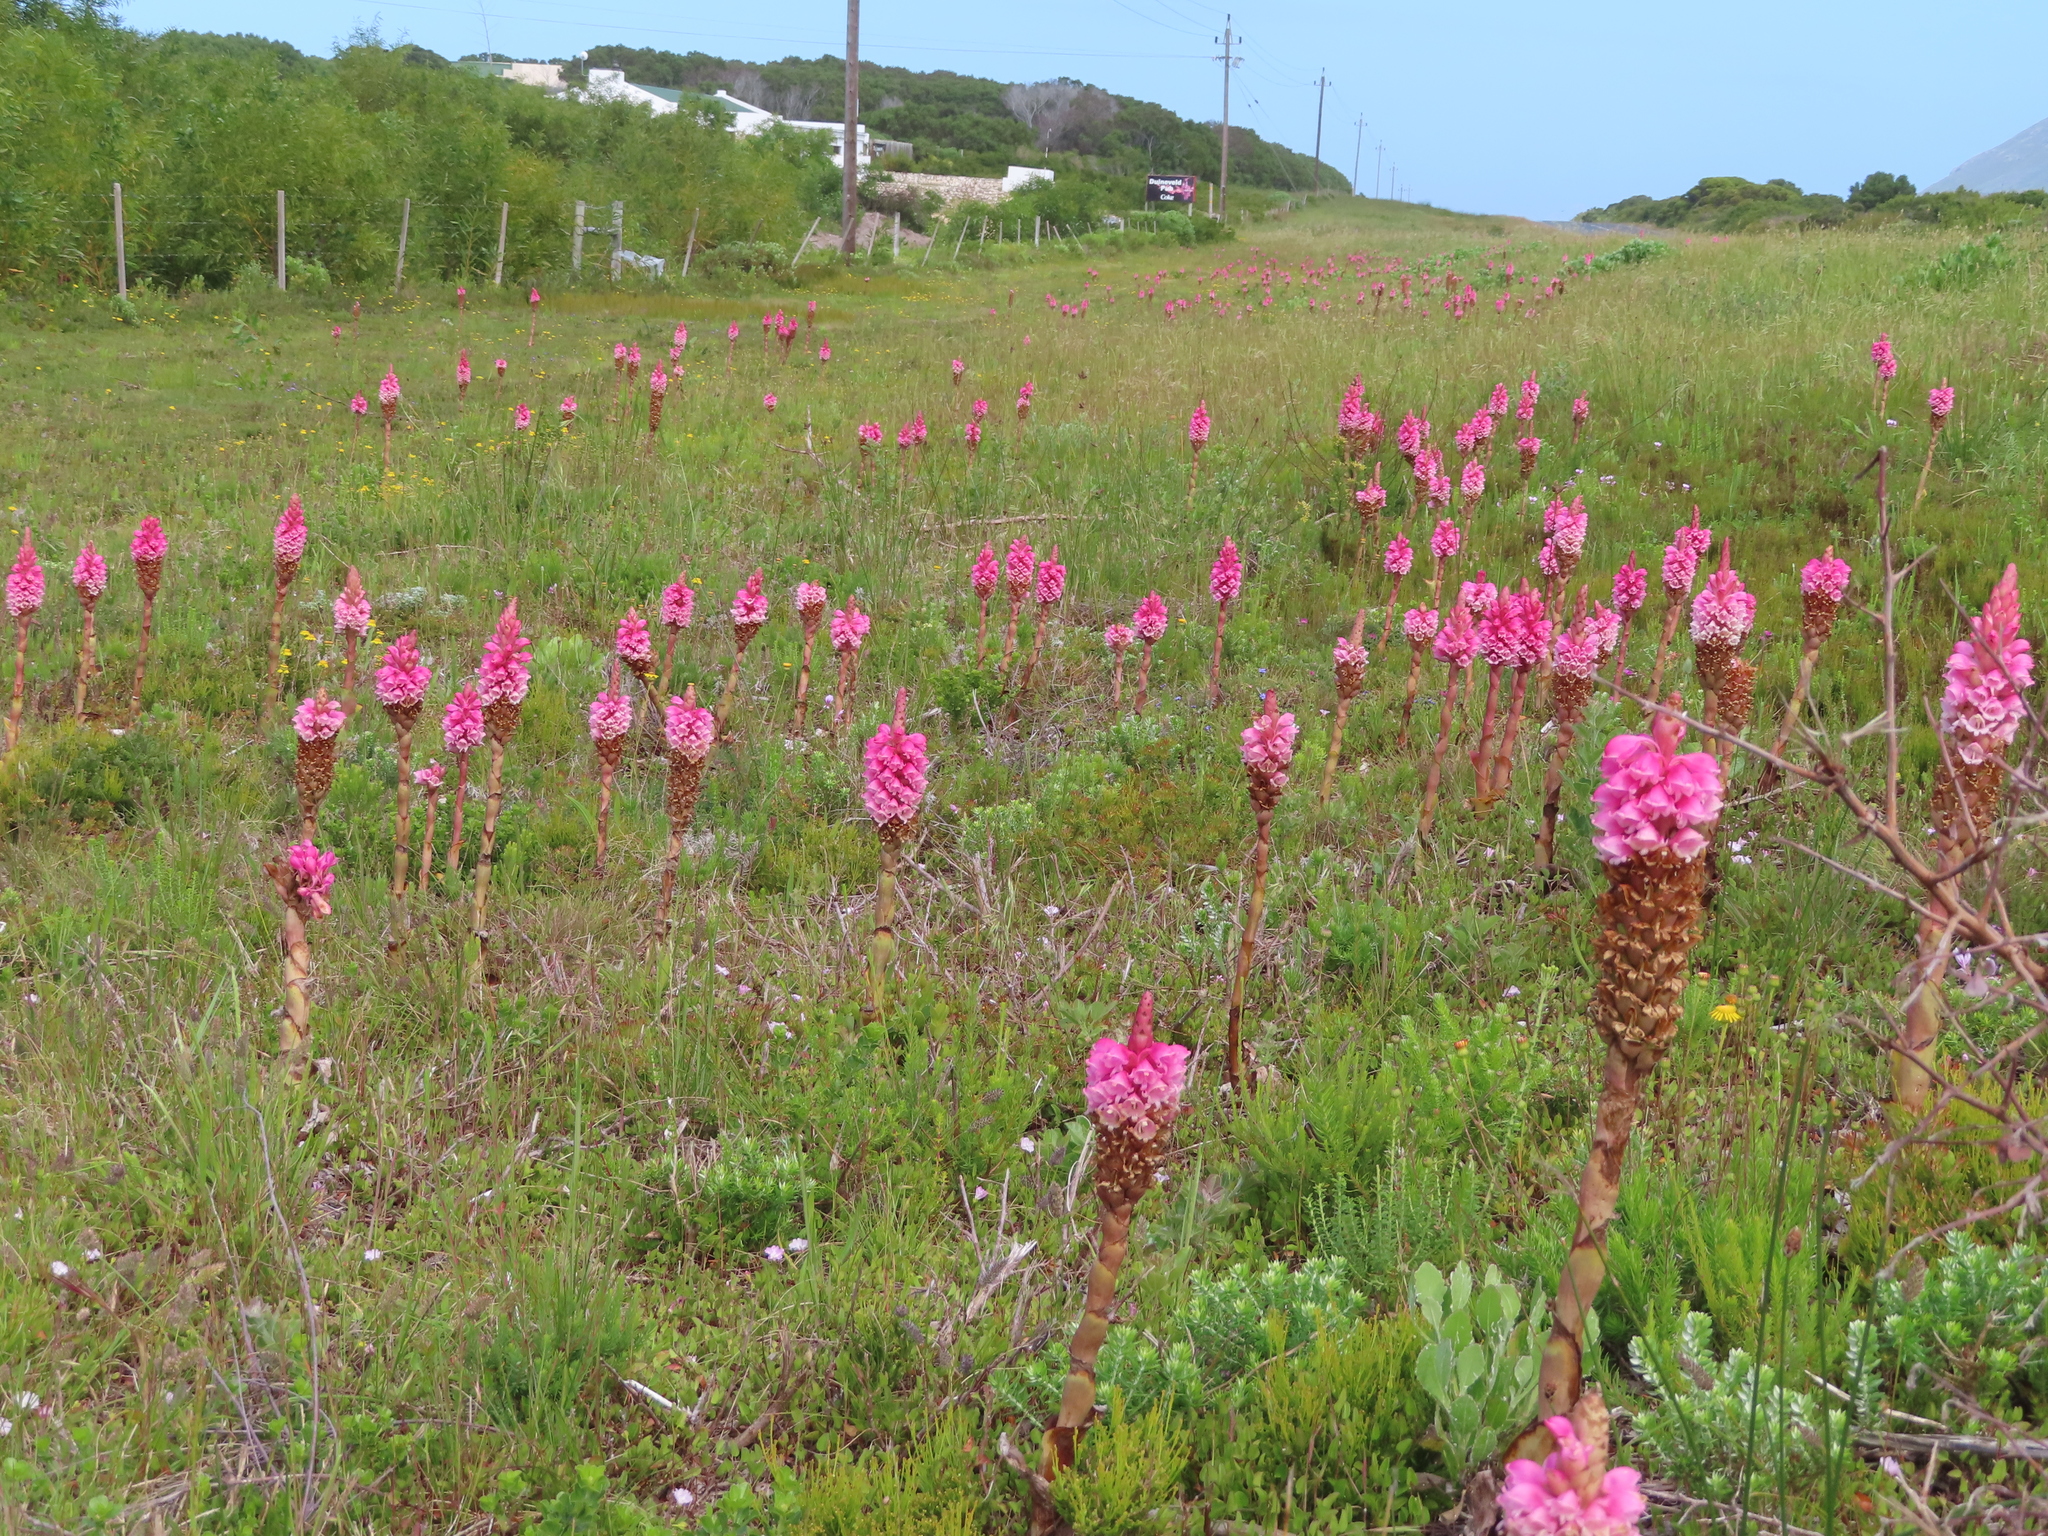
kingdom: Plantae
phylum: Tracheophyta
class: Liliopsida
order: Asparagales
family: Orchidaceae
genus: Satyrium
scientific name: Satyrium carneum
